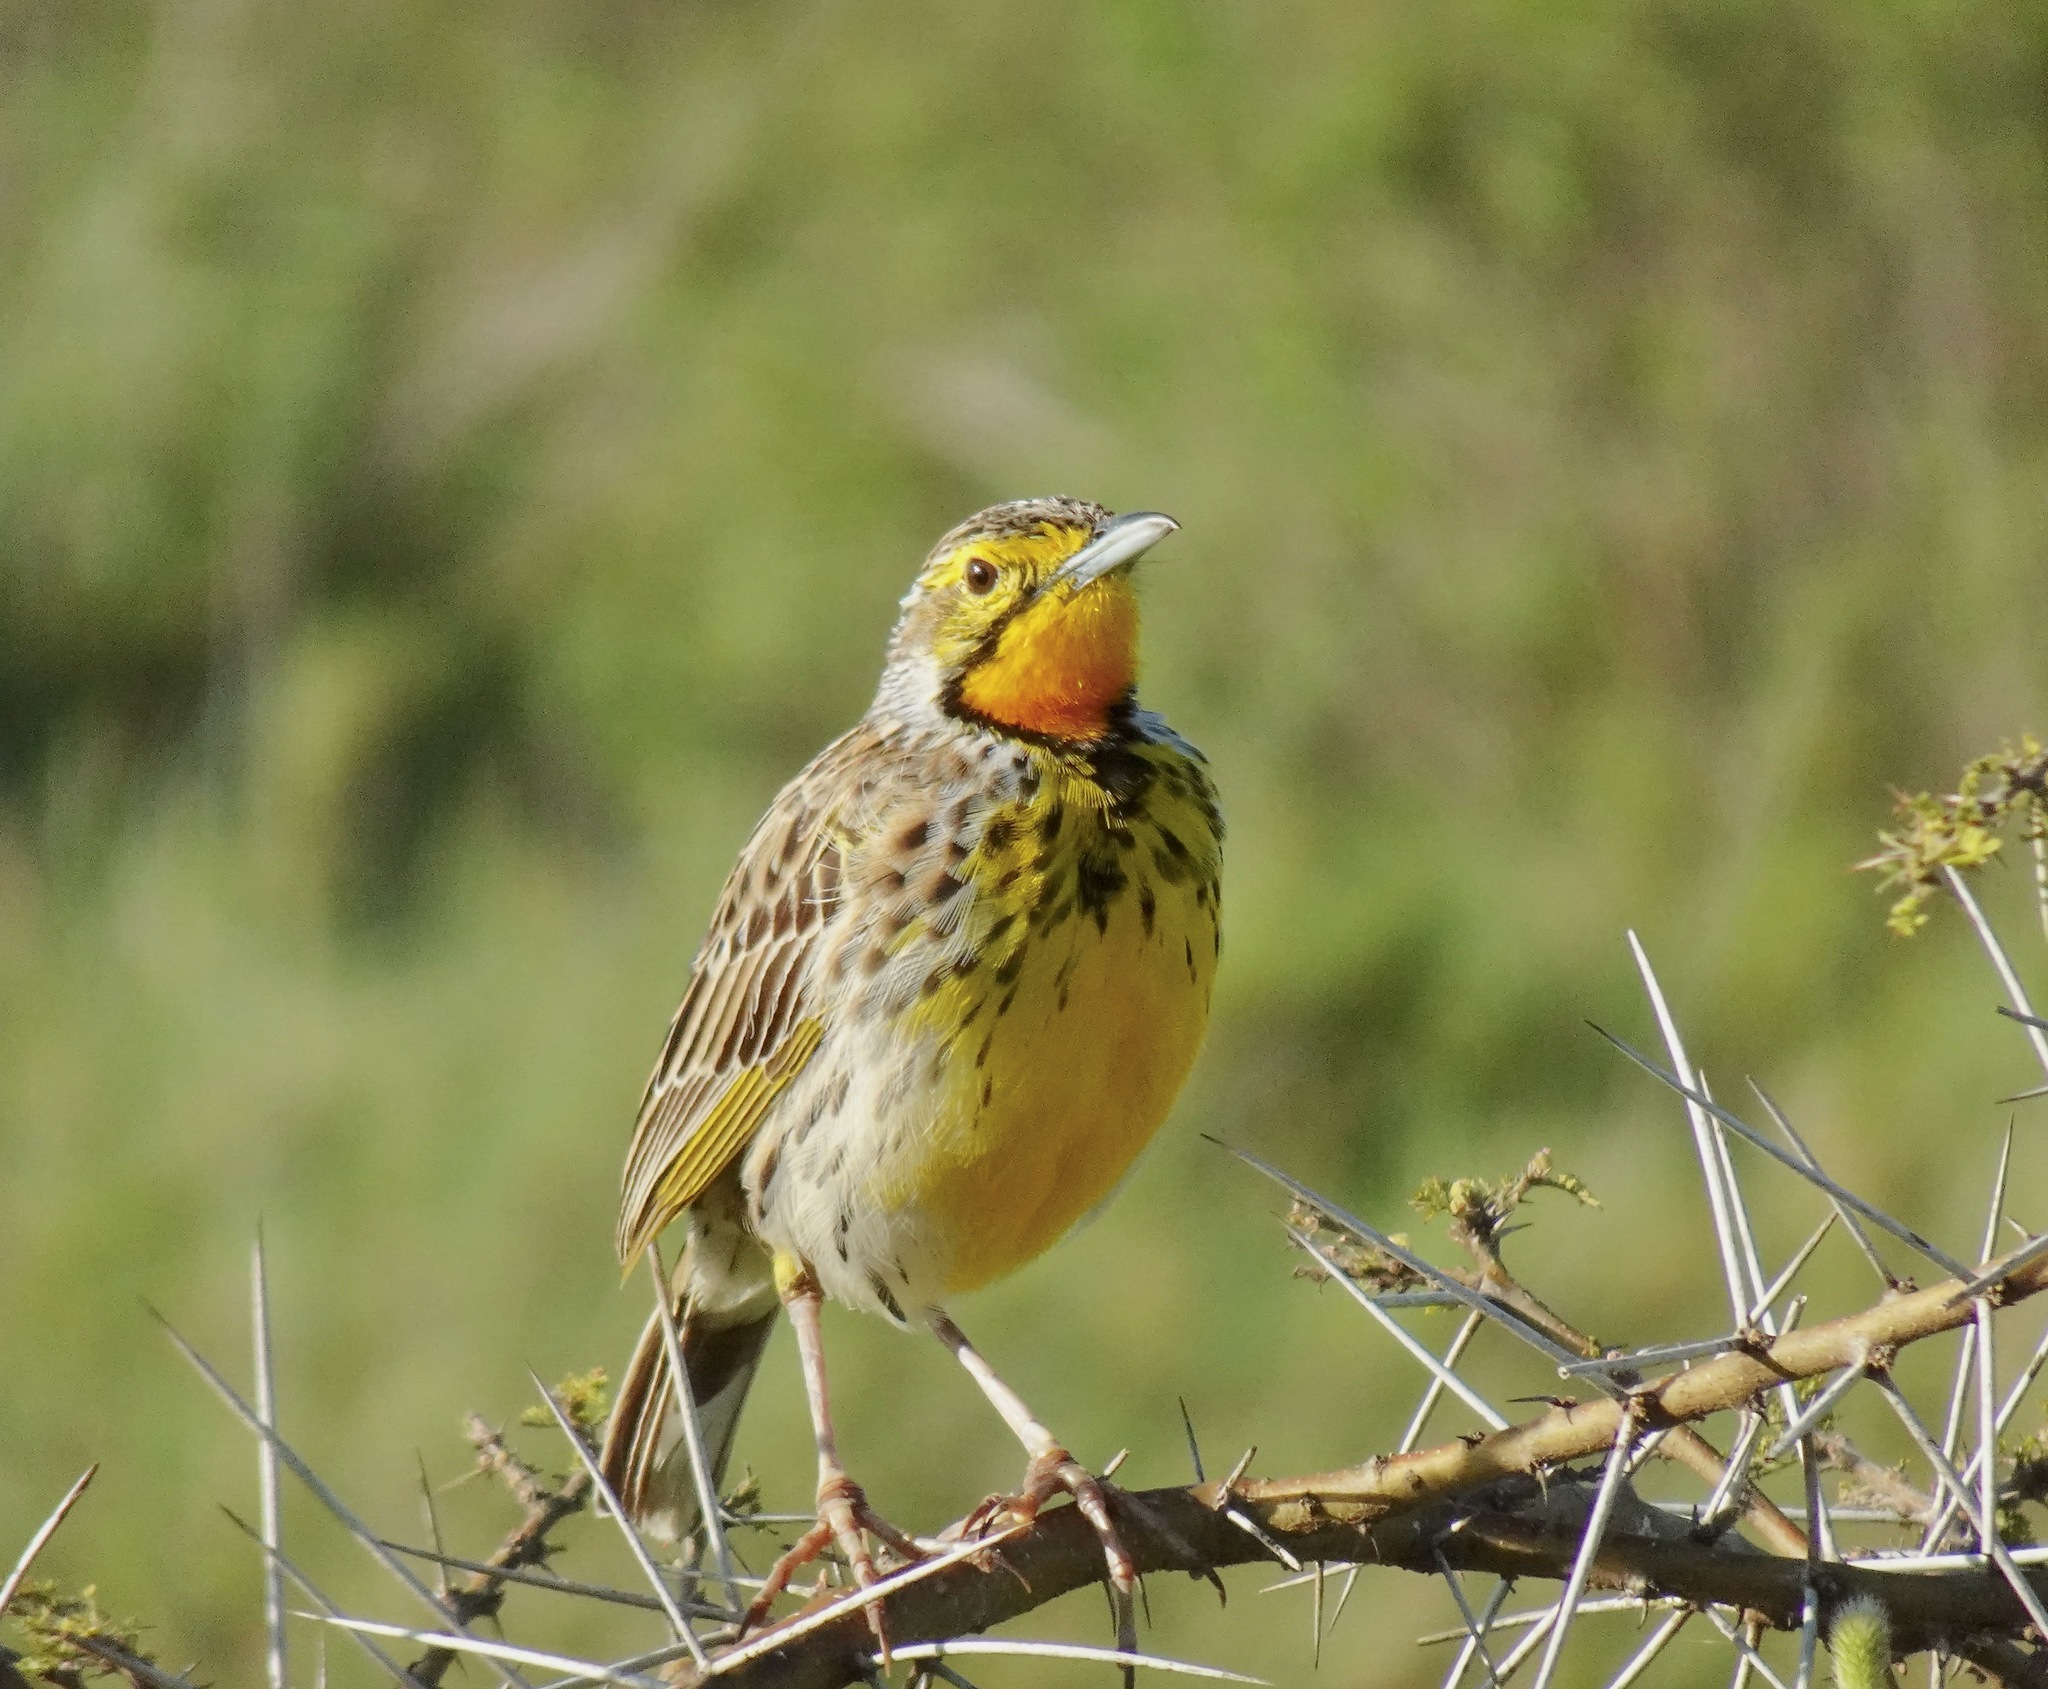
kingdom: Animalia
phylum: Chordata
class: Aves
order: Passeriformes
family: Motacillidae
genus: Macronyx
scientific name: Macronyx aurantiigula
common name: Pangani longclaw
